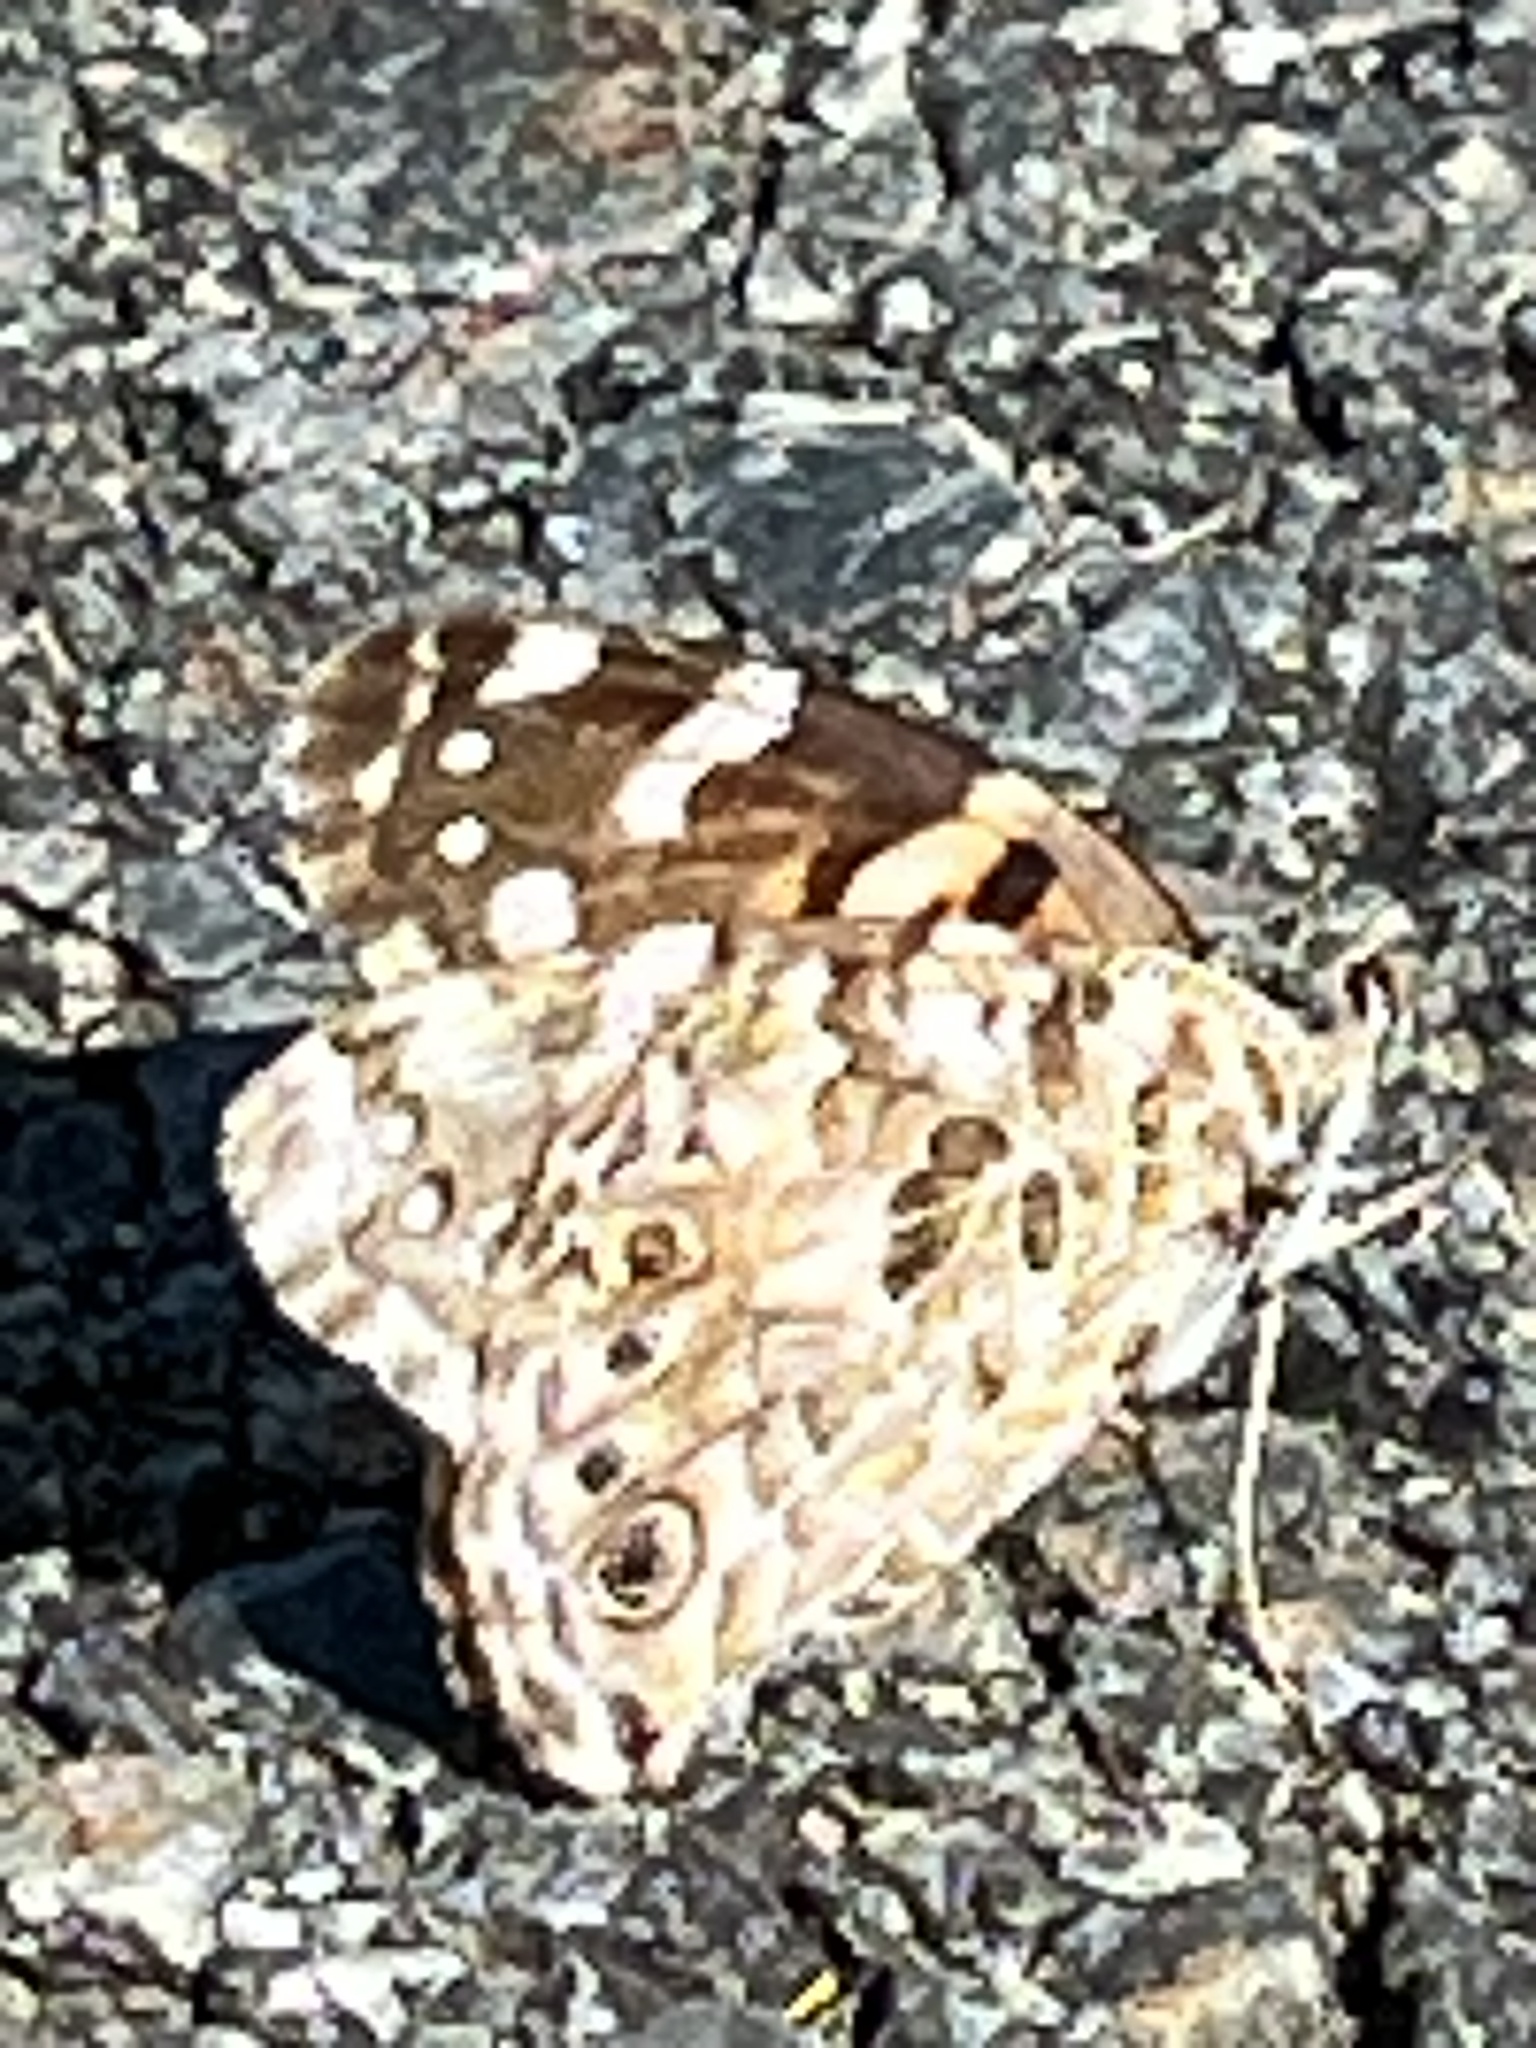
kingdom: Animalia
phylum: Arthropoda
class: Insecta
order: Lepidoptera
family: Nymphalidae
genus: Vanessa
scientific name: Vanessa cardui
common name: Painted lady
